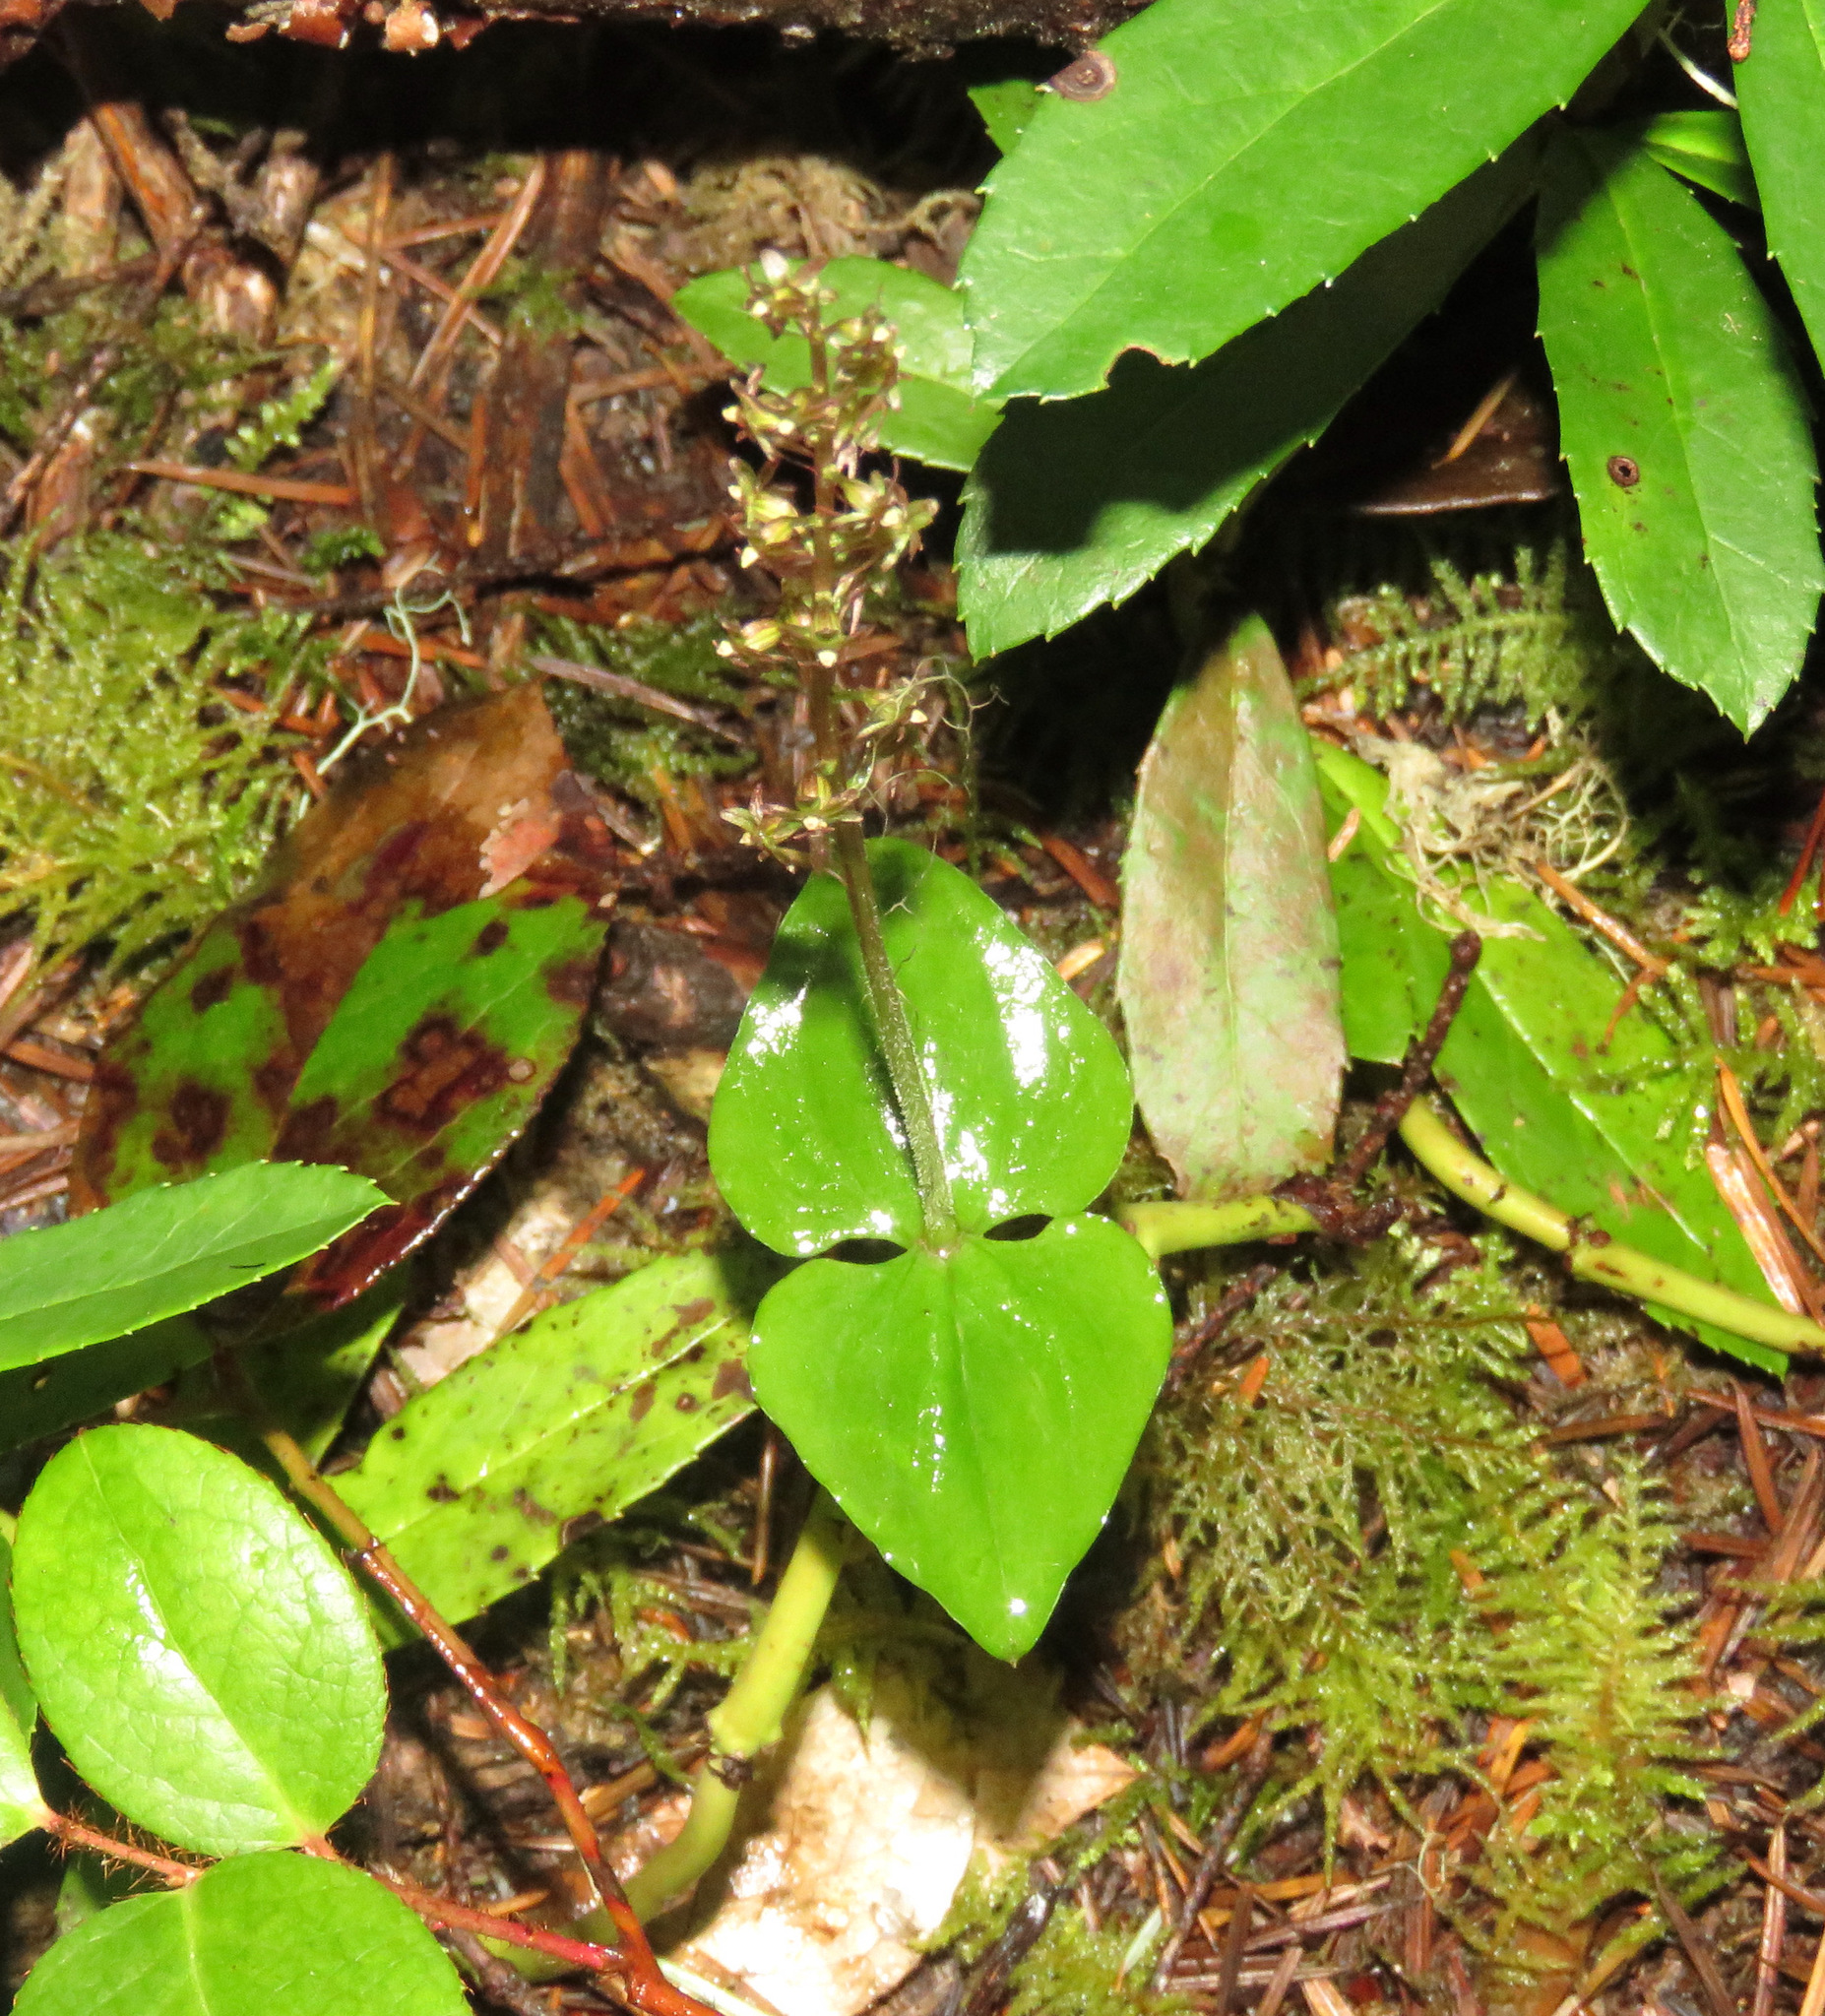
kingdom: Plantae
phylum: Tracheophyta
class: Liliopsida
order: Asparagales
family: Orchidaceae
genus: Neottia
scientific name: Neottia cordata
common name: Lesser twayblade
